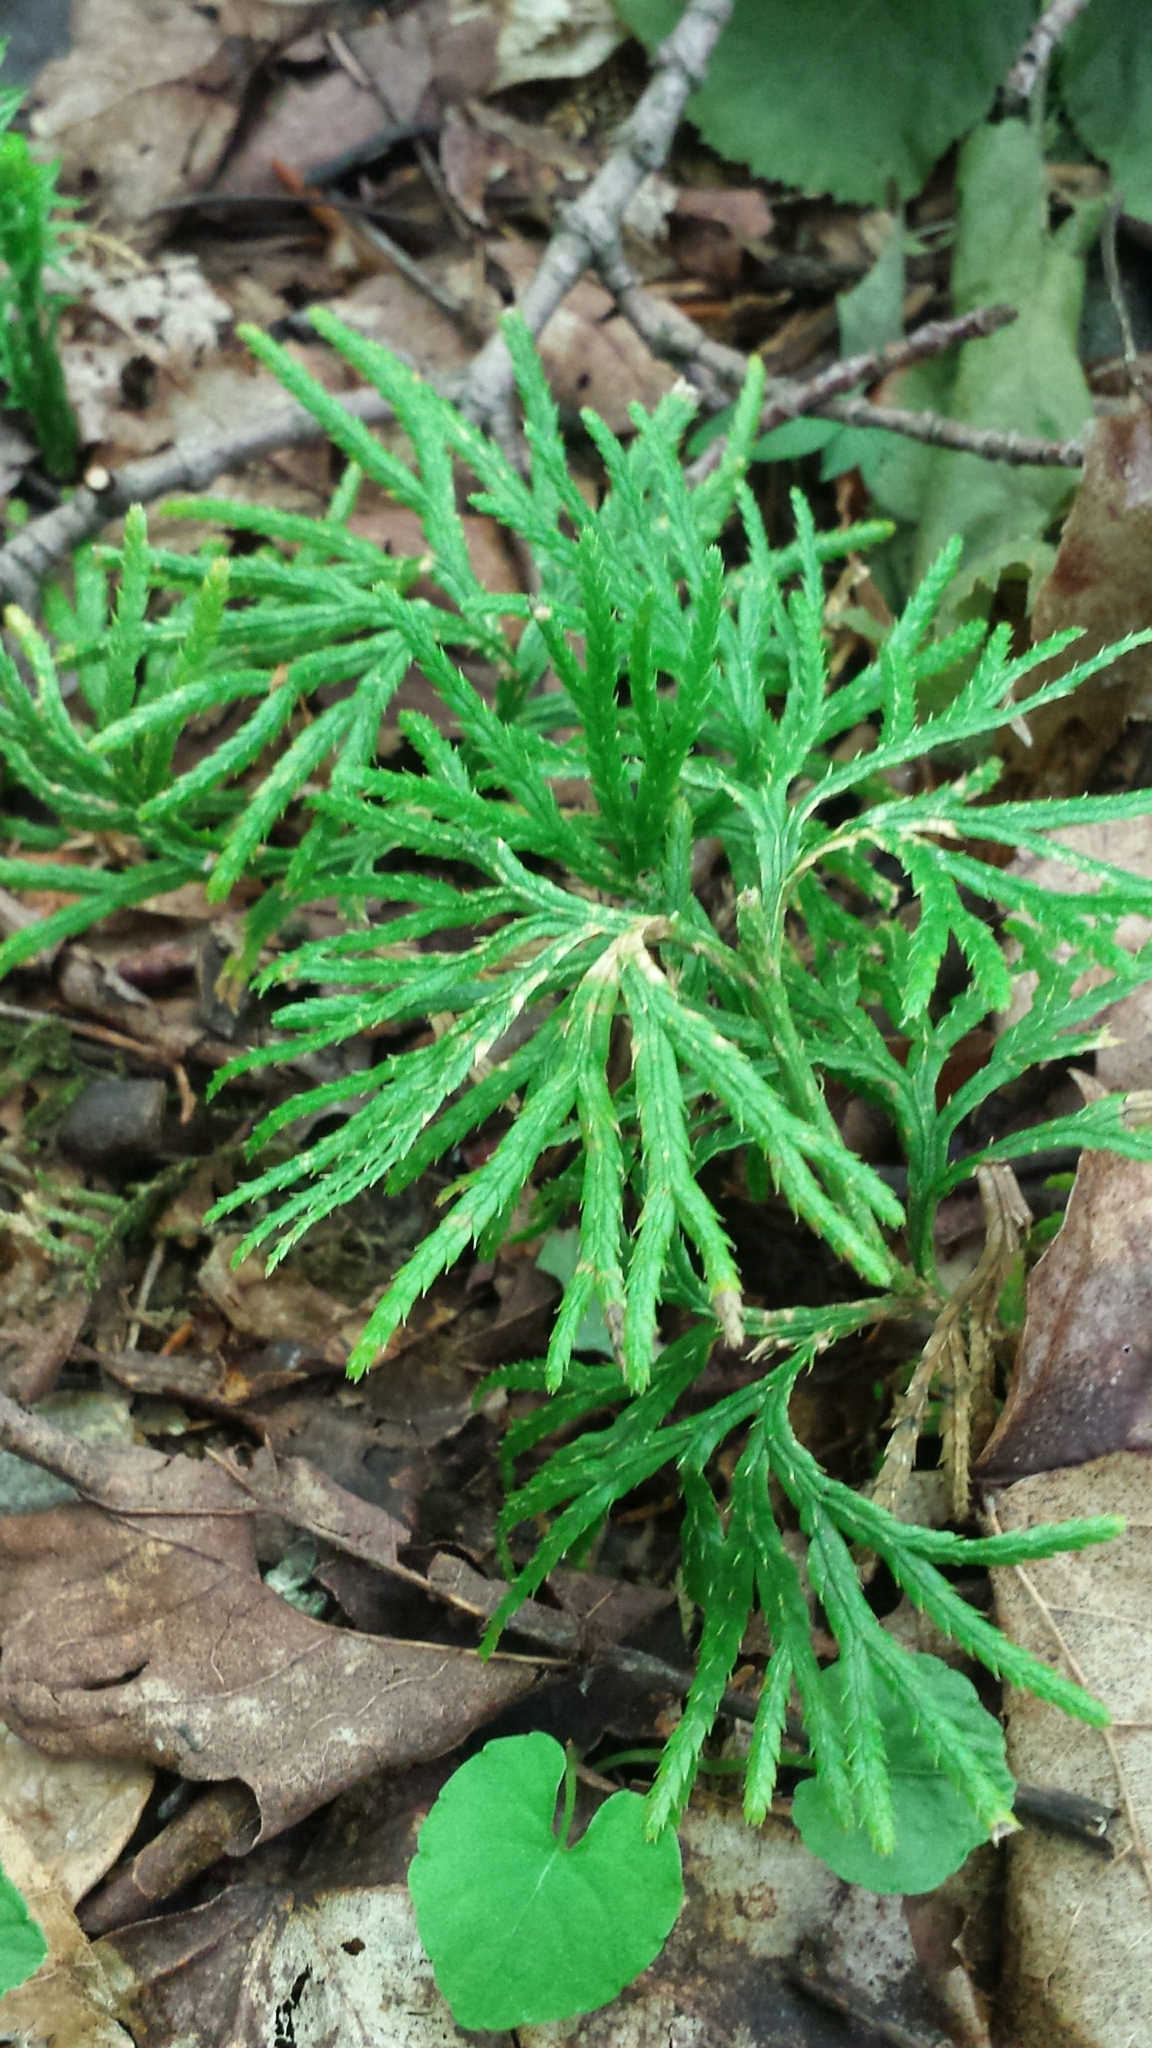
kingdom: Plantae
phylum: Tracheophyta
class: Lycopodiopsida
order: Lycopodiales
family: Lycopodiaceae
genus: Diphasiastrum
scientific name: Diphasiastrum digitatum
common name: Southern running-pine
